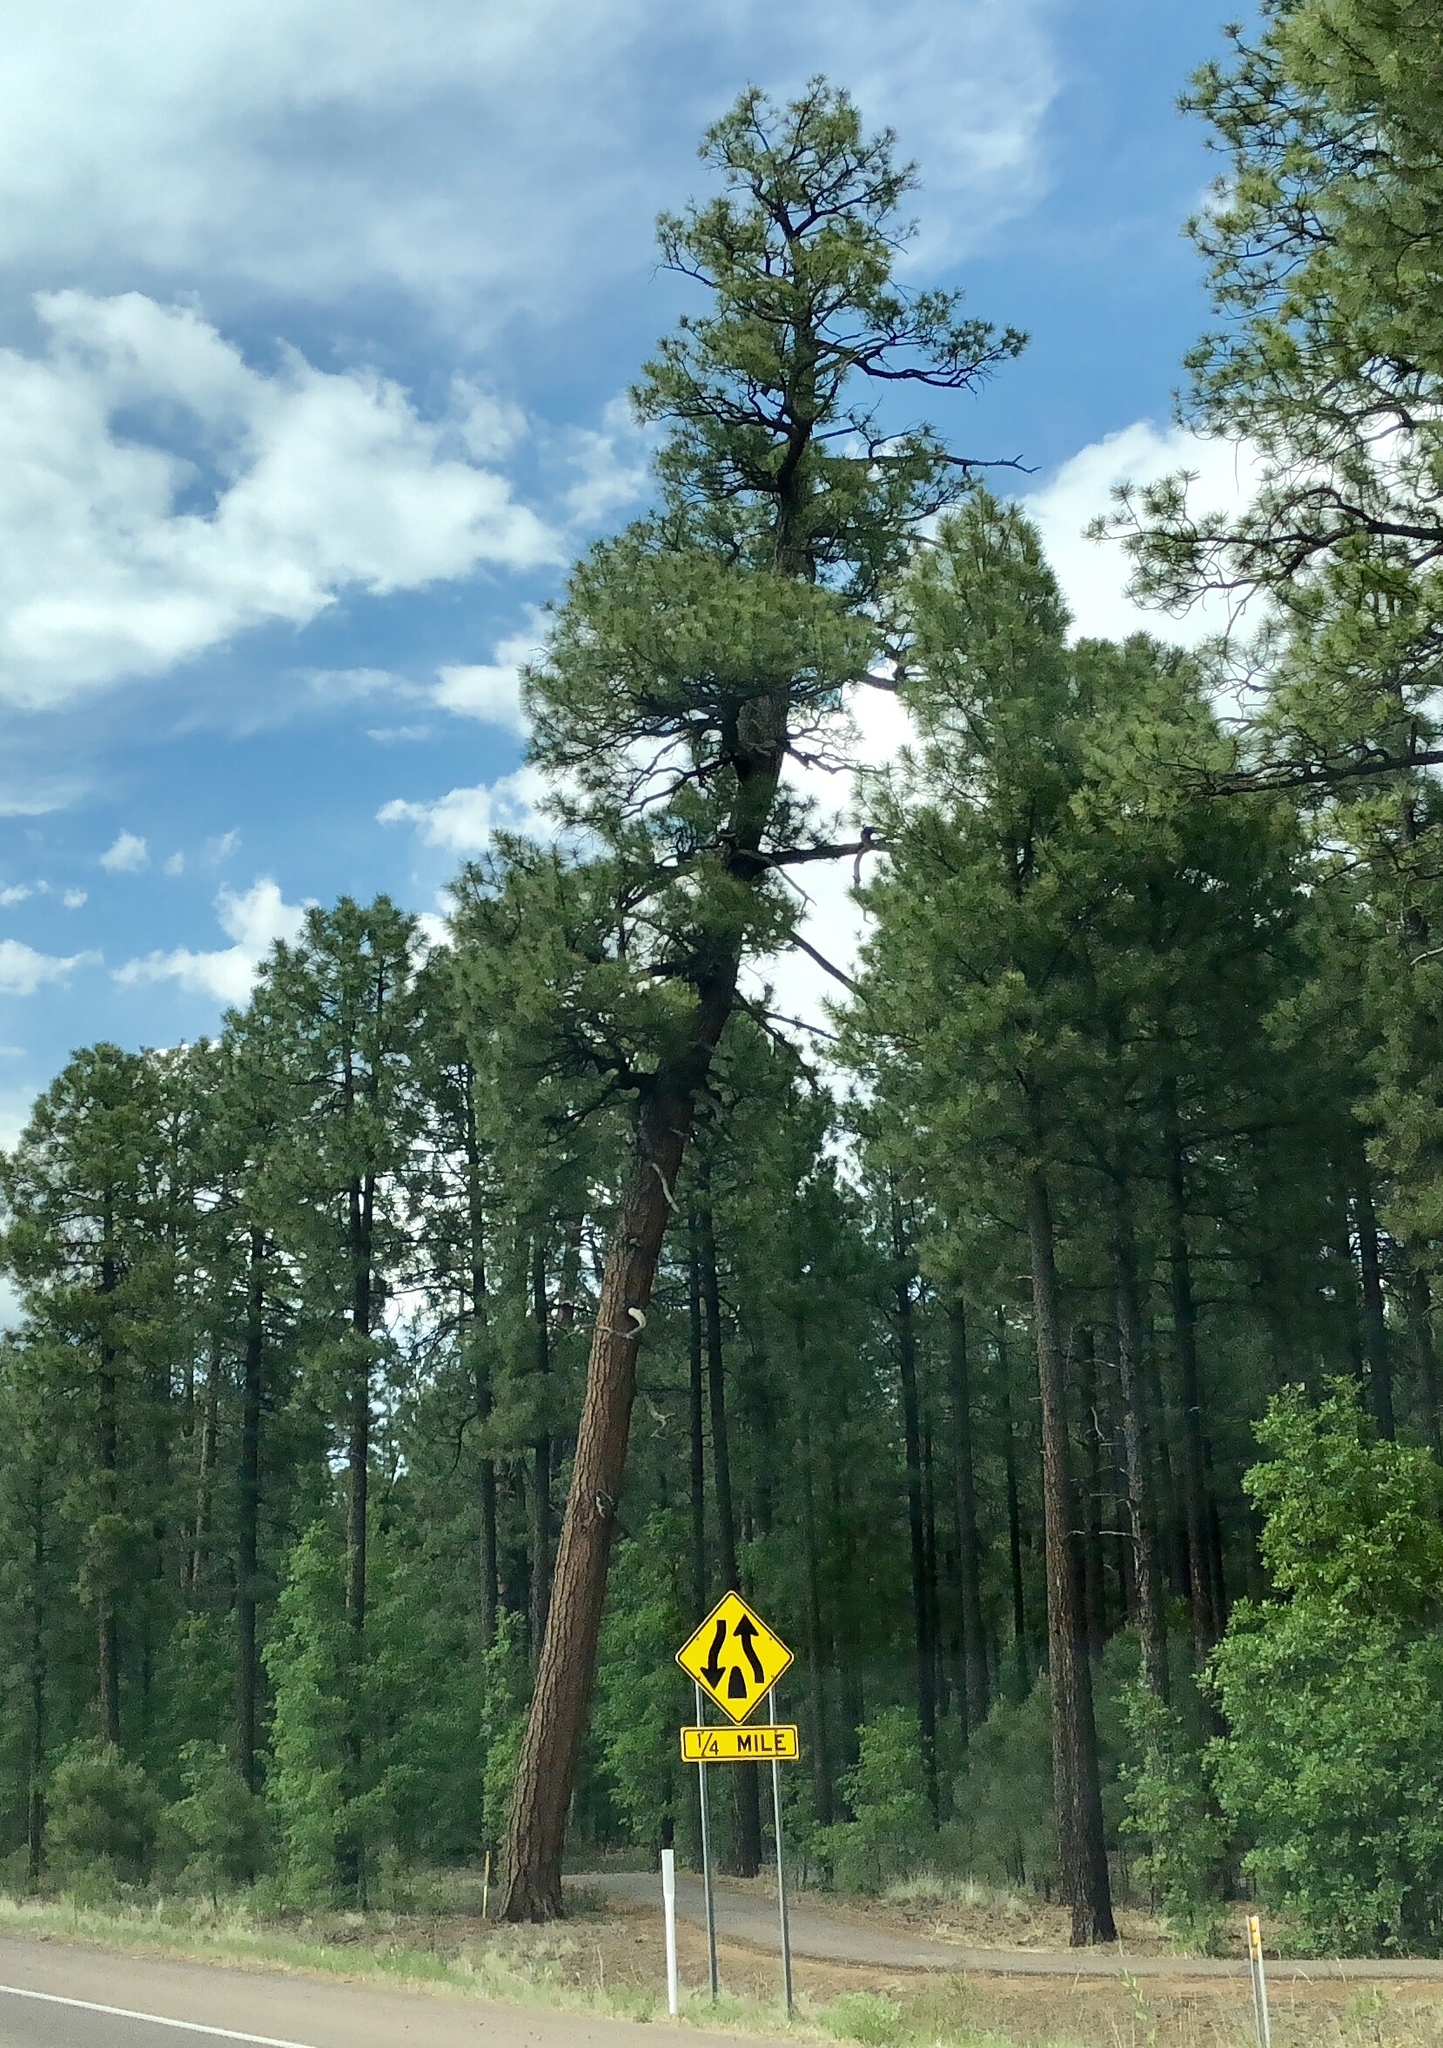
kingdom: Plantae
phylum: Tracheophyta
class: Pinopsida
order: Pinales
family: Pinaceae
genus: Pinus
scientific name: Pinus ponderosa
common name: Western yellow-pine
